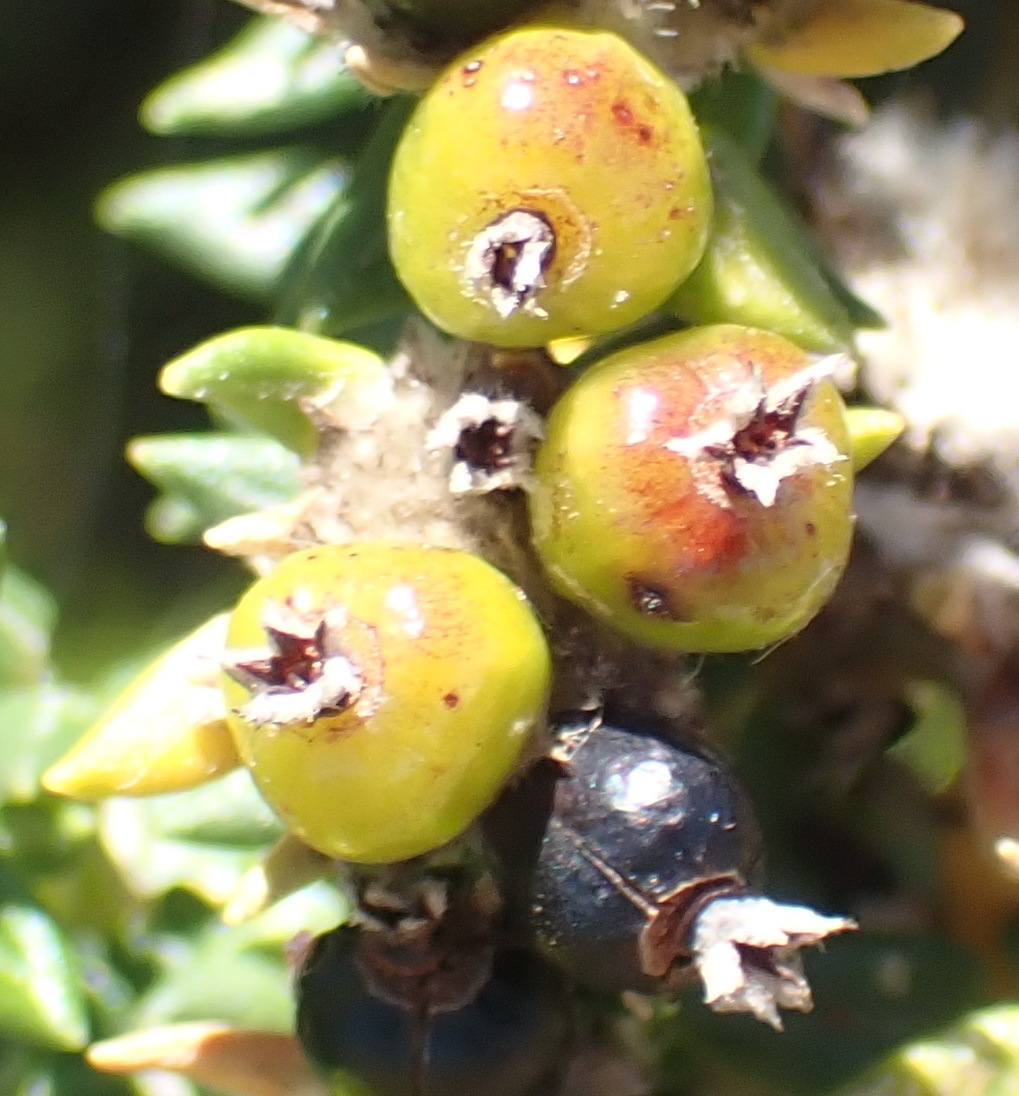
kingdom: Plantae
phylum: Tracheophyta
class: Magnoliopsida
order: Rosales
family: Rhamnaceae
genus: Phylica
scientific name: Phylica litoralis
